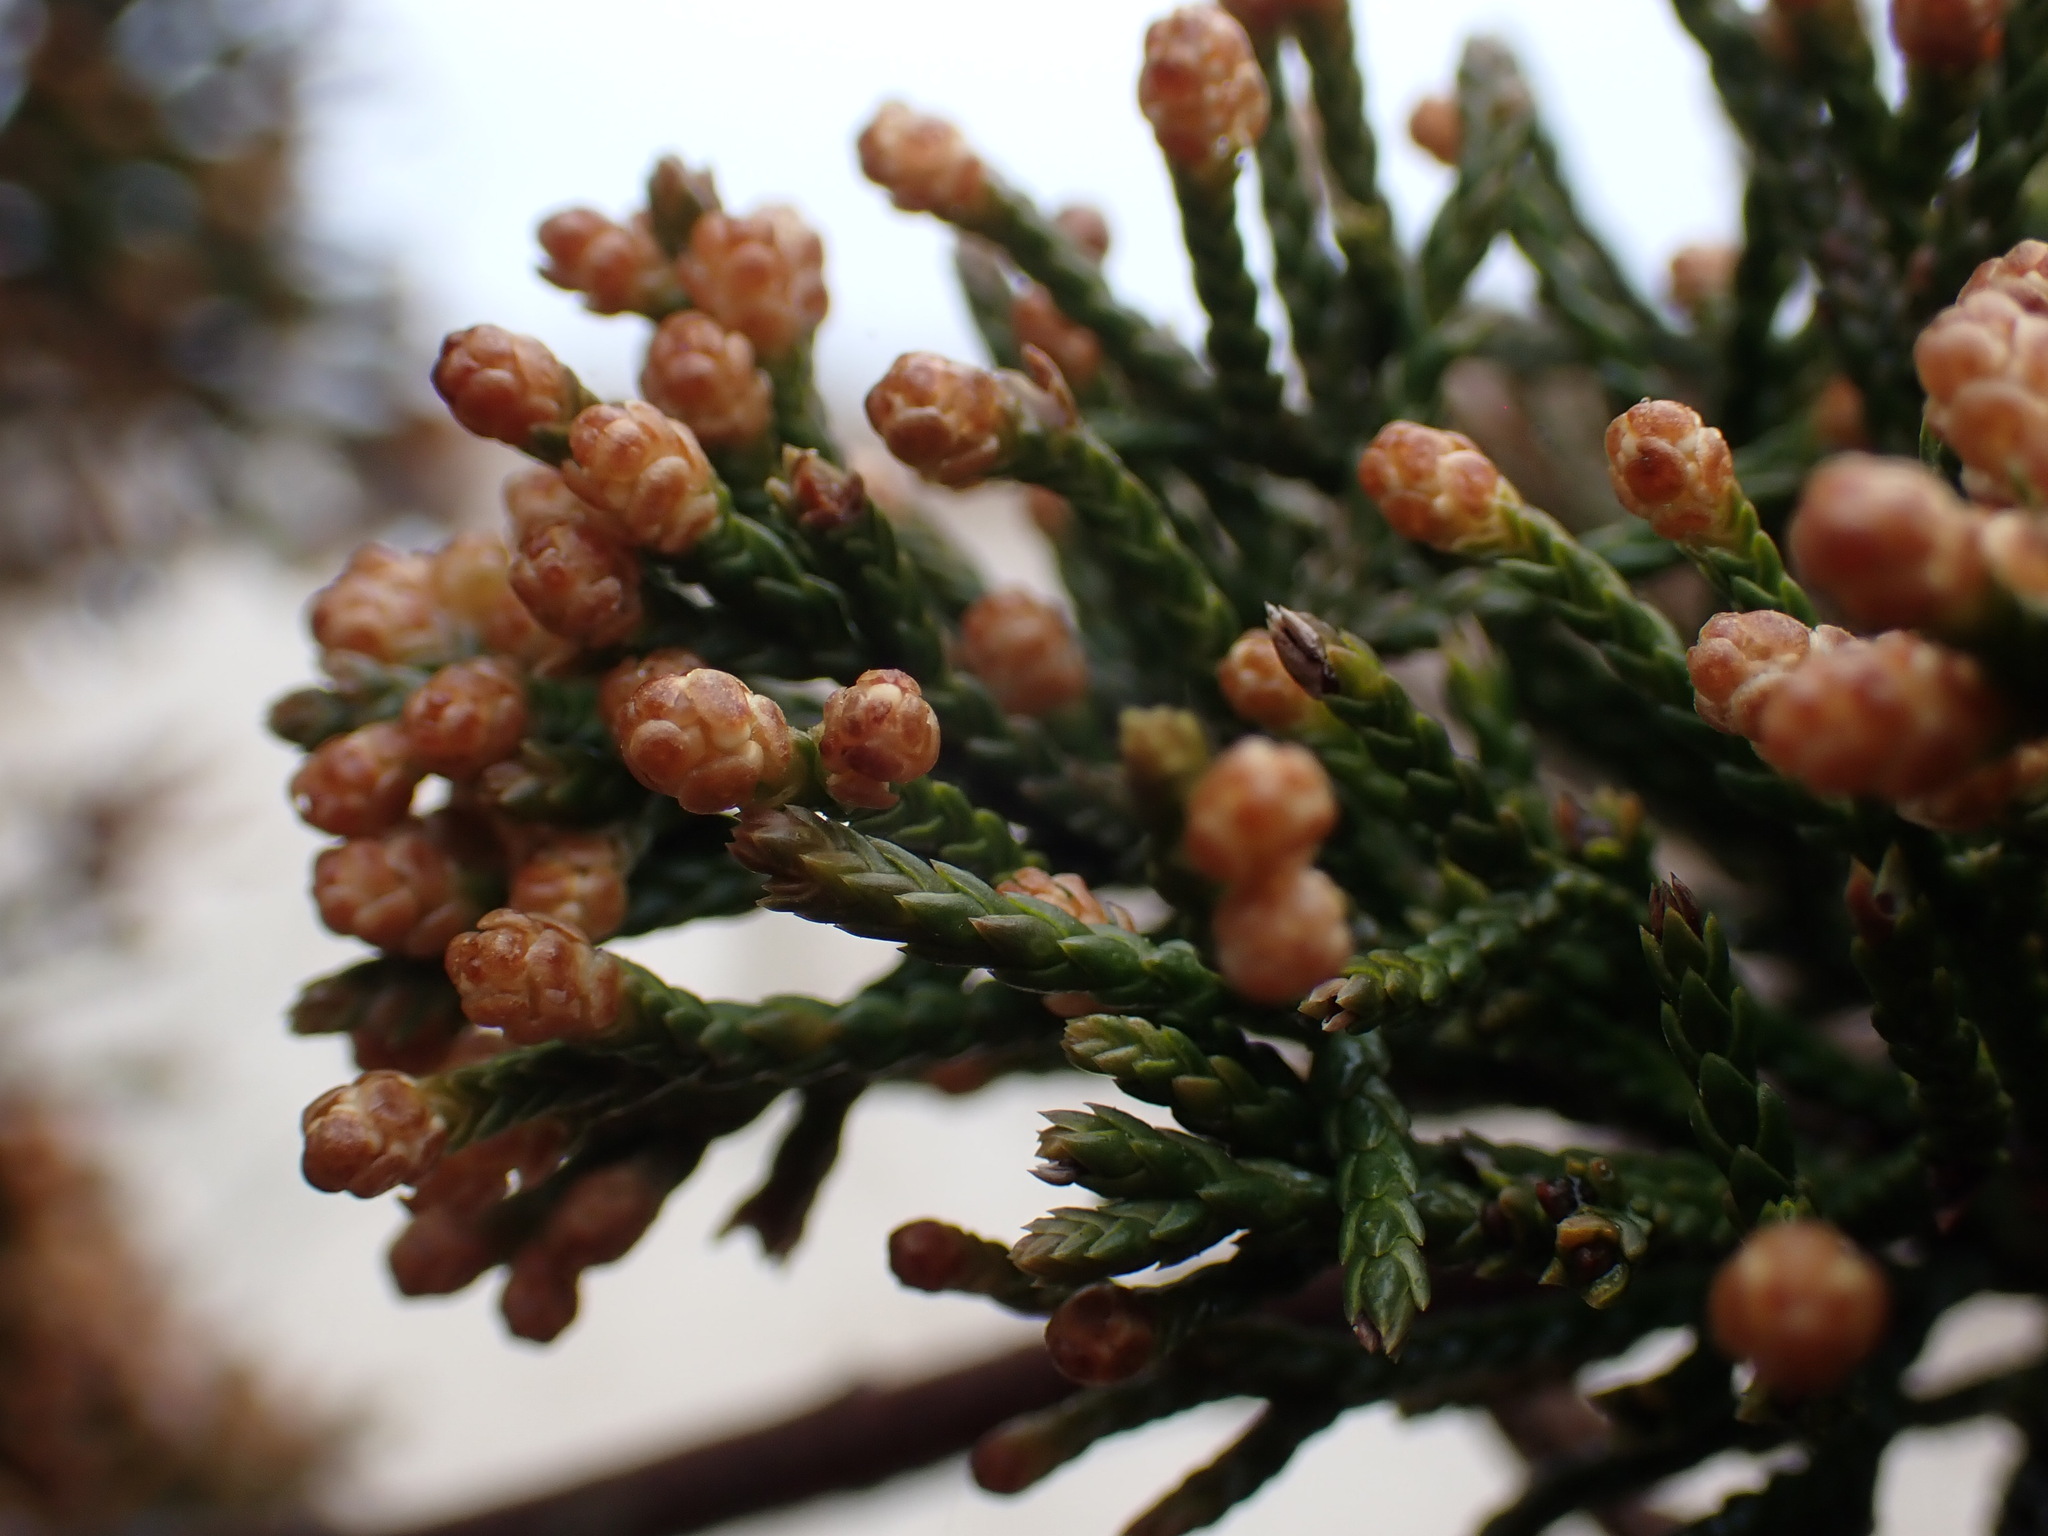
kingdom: Plantae
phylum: Tracheophyta
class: Pinopsida
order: Pinales
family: Cupressaceae
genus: Juniperus
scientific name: Juniperus virginiana
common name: Red juniper
